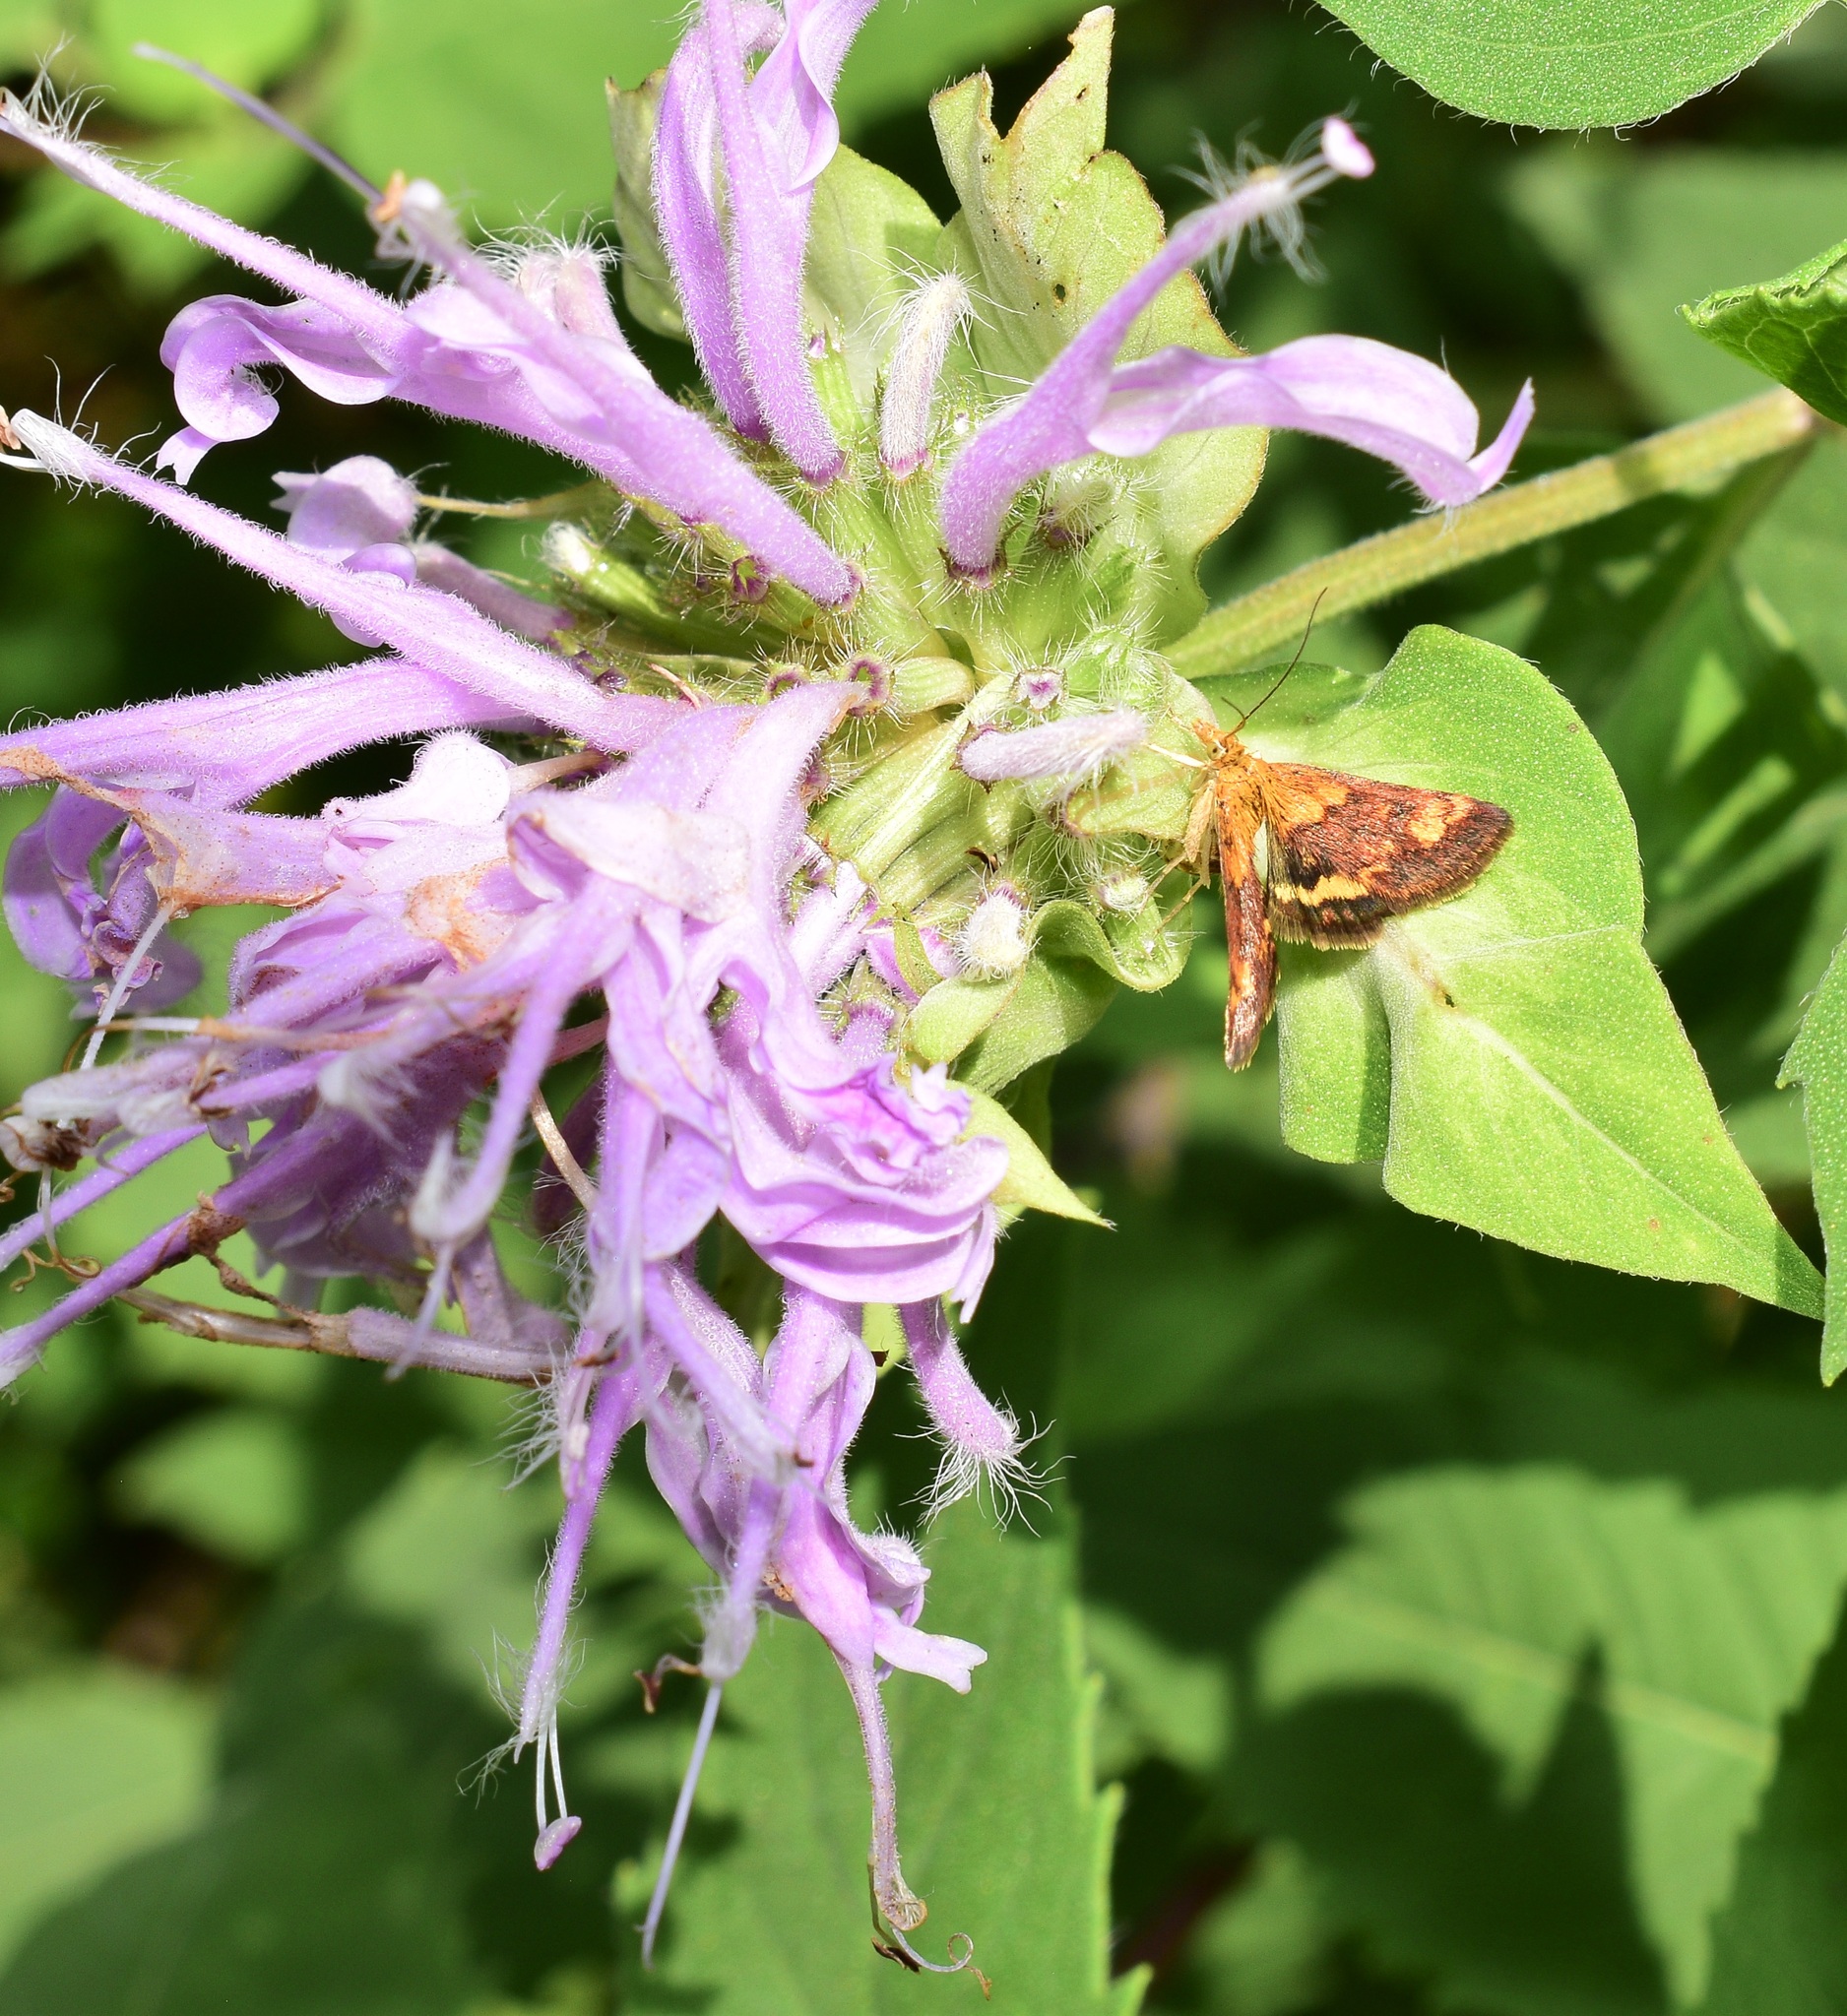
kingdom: Animalia
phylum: Arthropoda
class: Insecta
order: Lepidoptera
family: Crambidae
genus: Pyrausta
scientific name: Pyrausta orphisalis
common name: Orange mint moth
